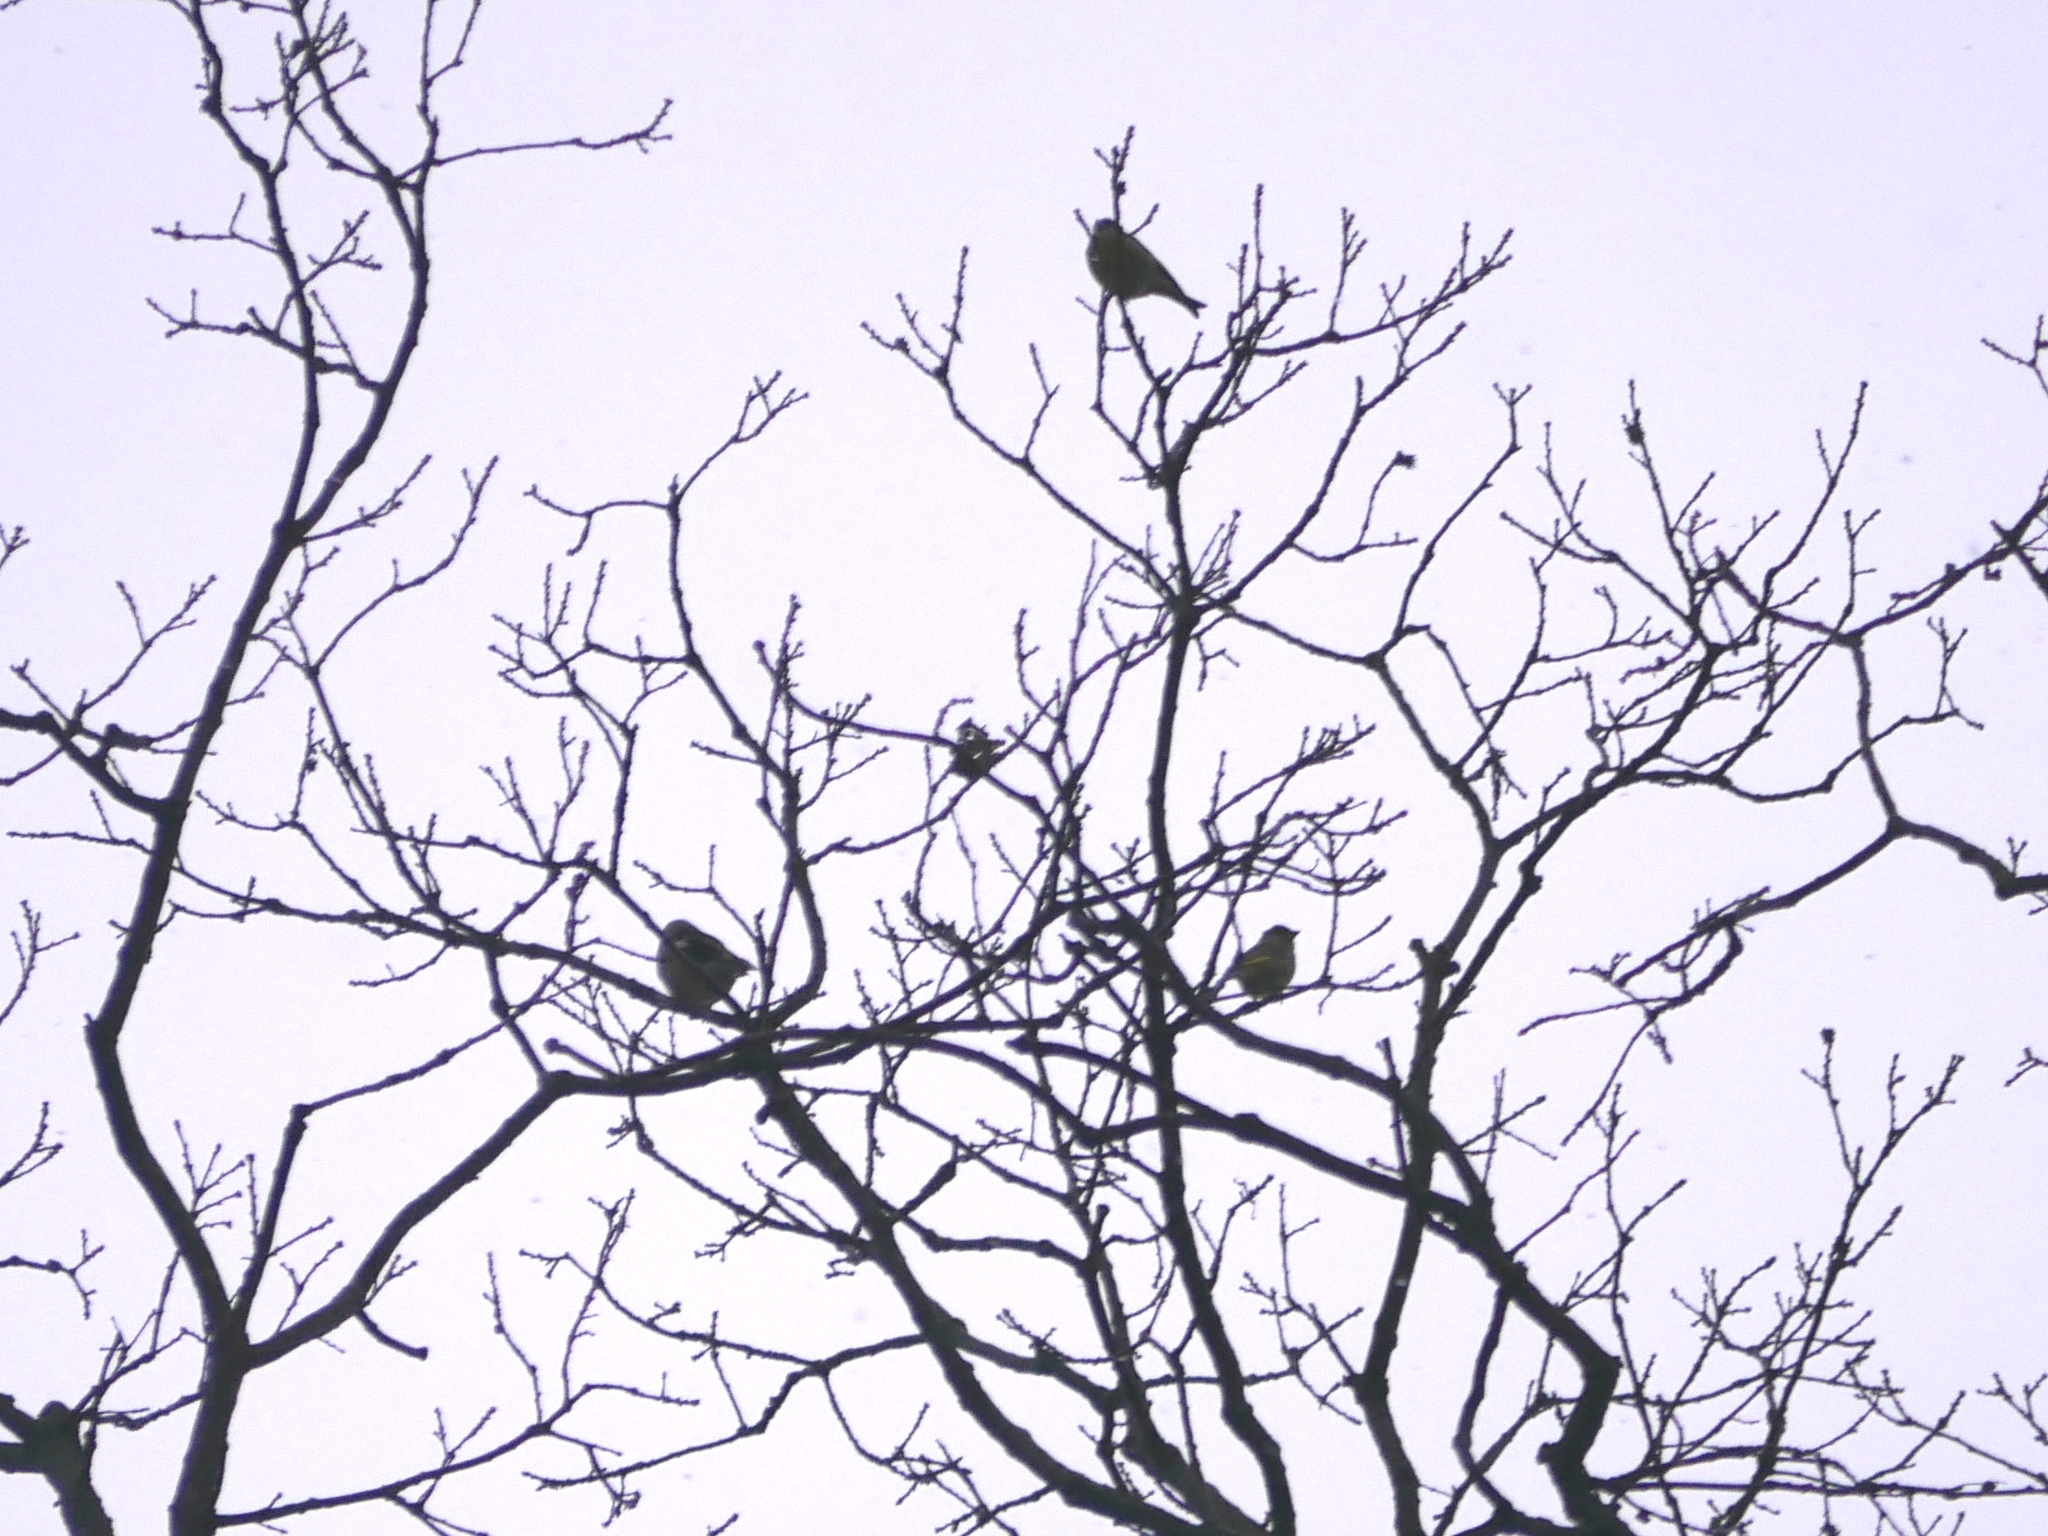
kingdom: Animalia
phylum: Chordata
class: Aves
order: Passeriformes
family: Fringillidae
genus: Coccothraustes
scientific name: Coccothraustes coccothraustes
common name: Hawfinch
